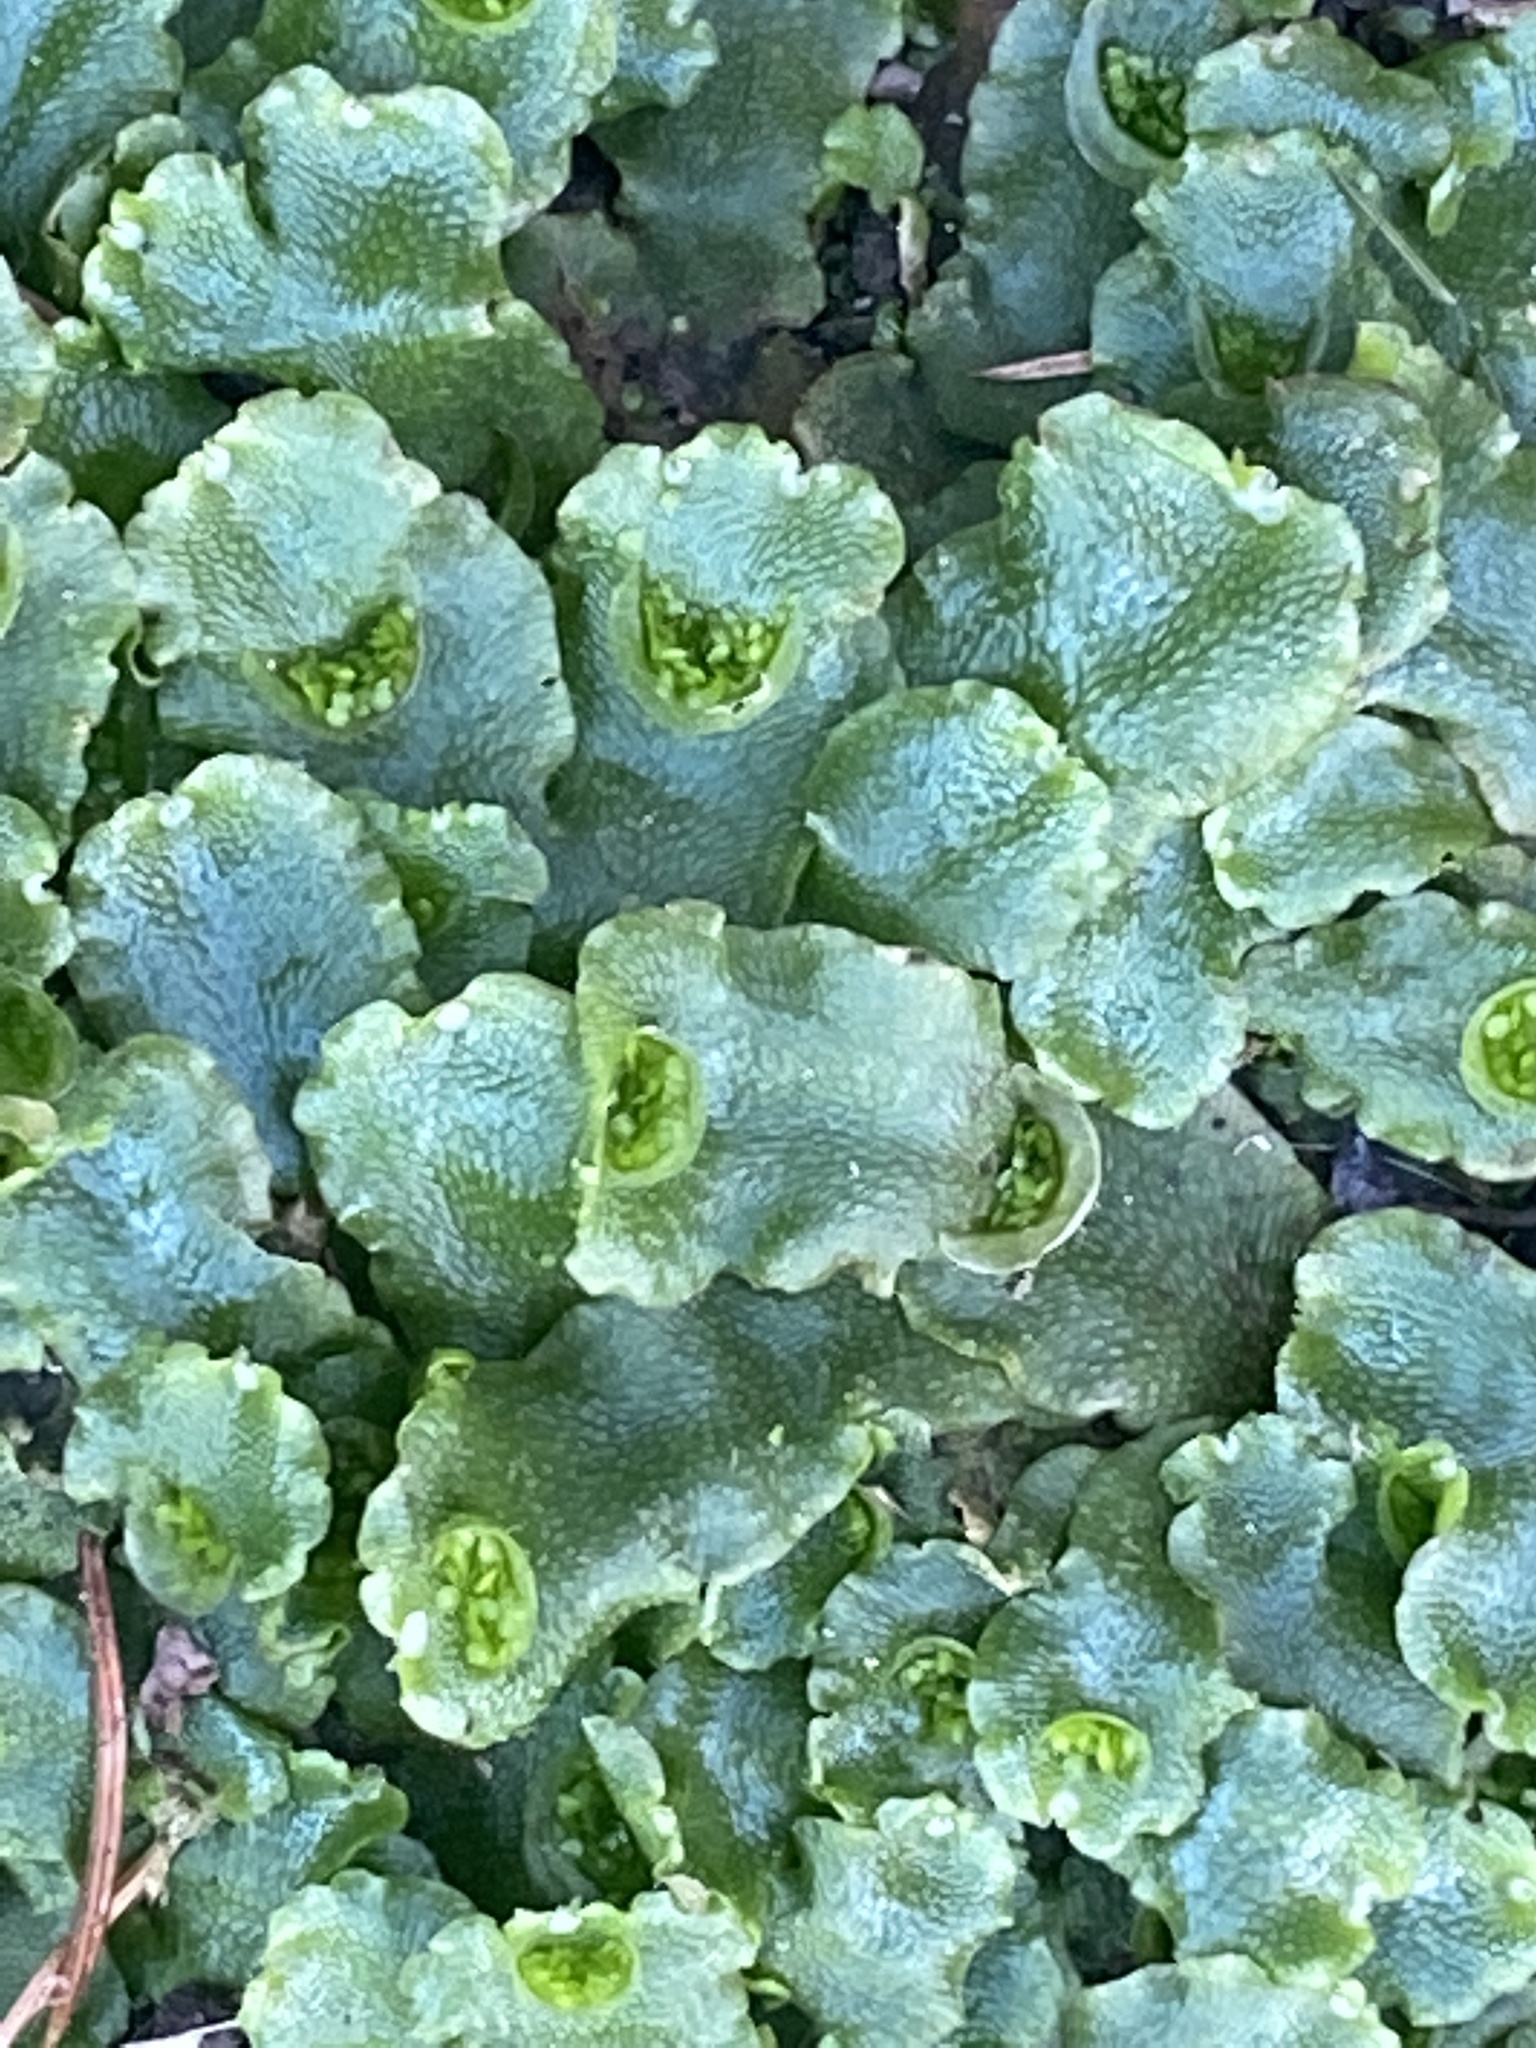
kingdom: Plantae
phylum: Marchantiophyta
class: Marchantiopsida
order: Lunulariales
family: Lunulariaceae
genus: Lunularia
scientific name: Lunularia cruciata
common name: Crescent-cup liverwort
